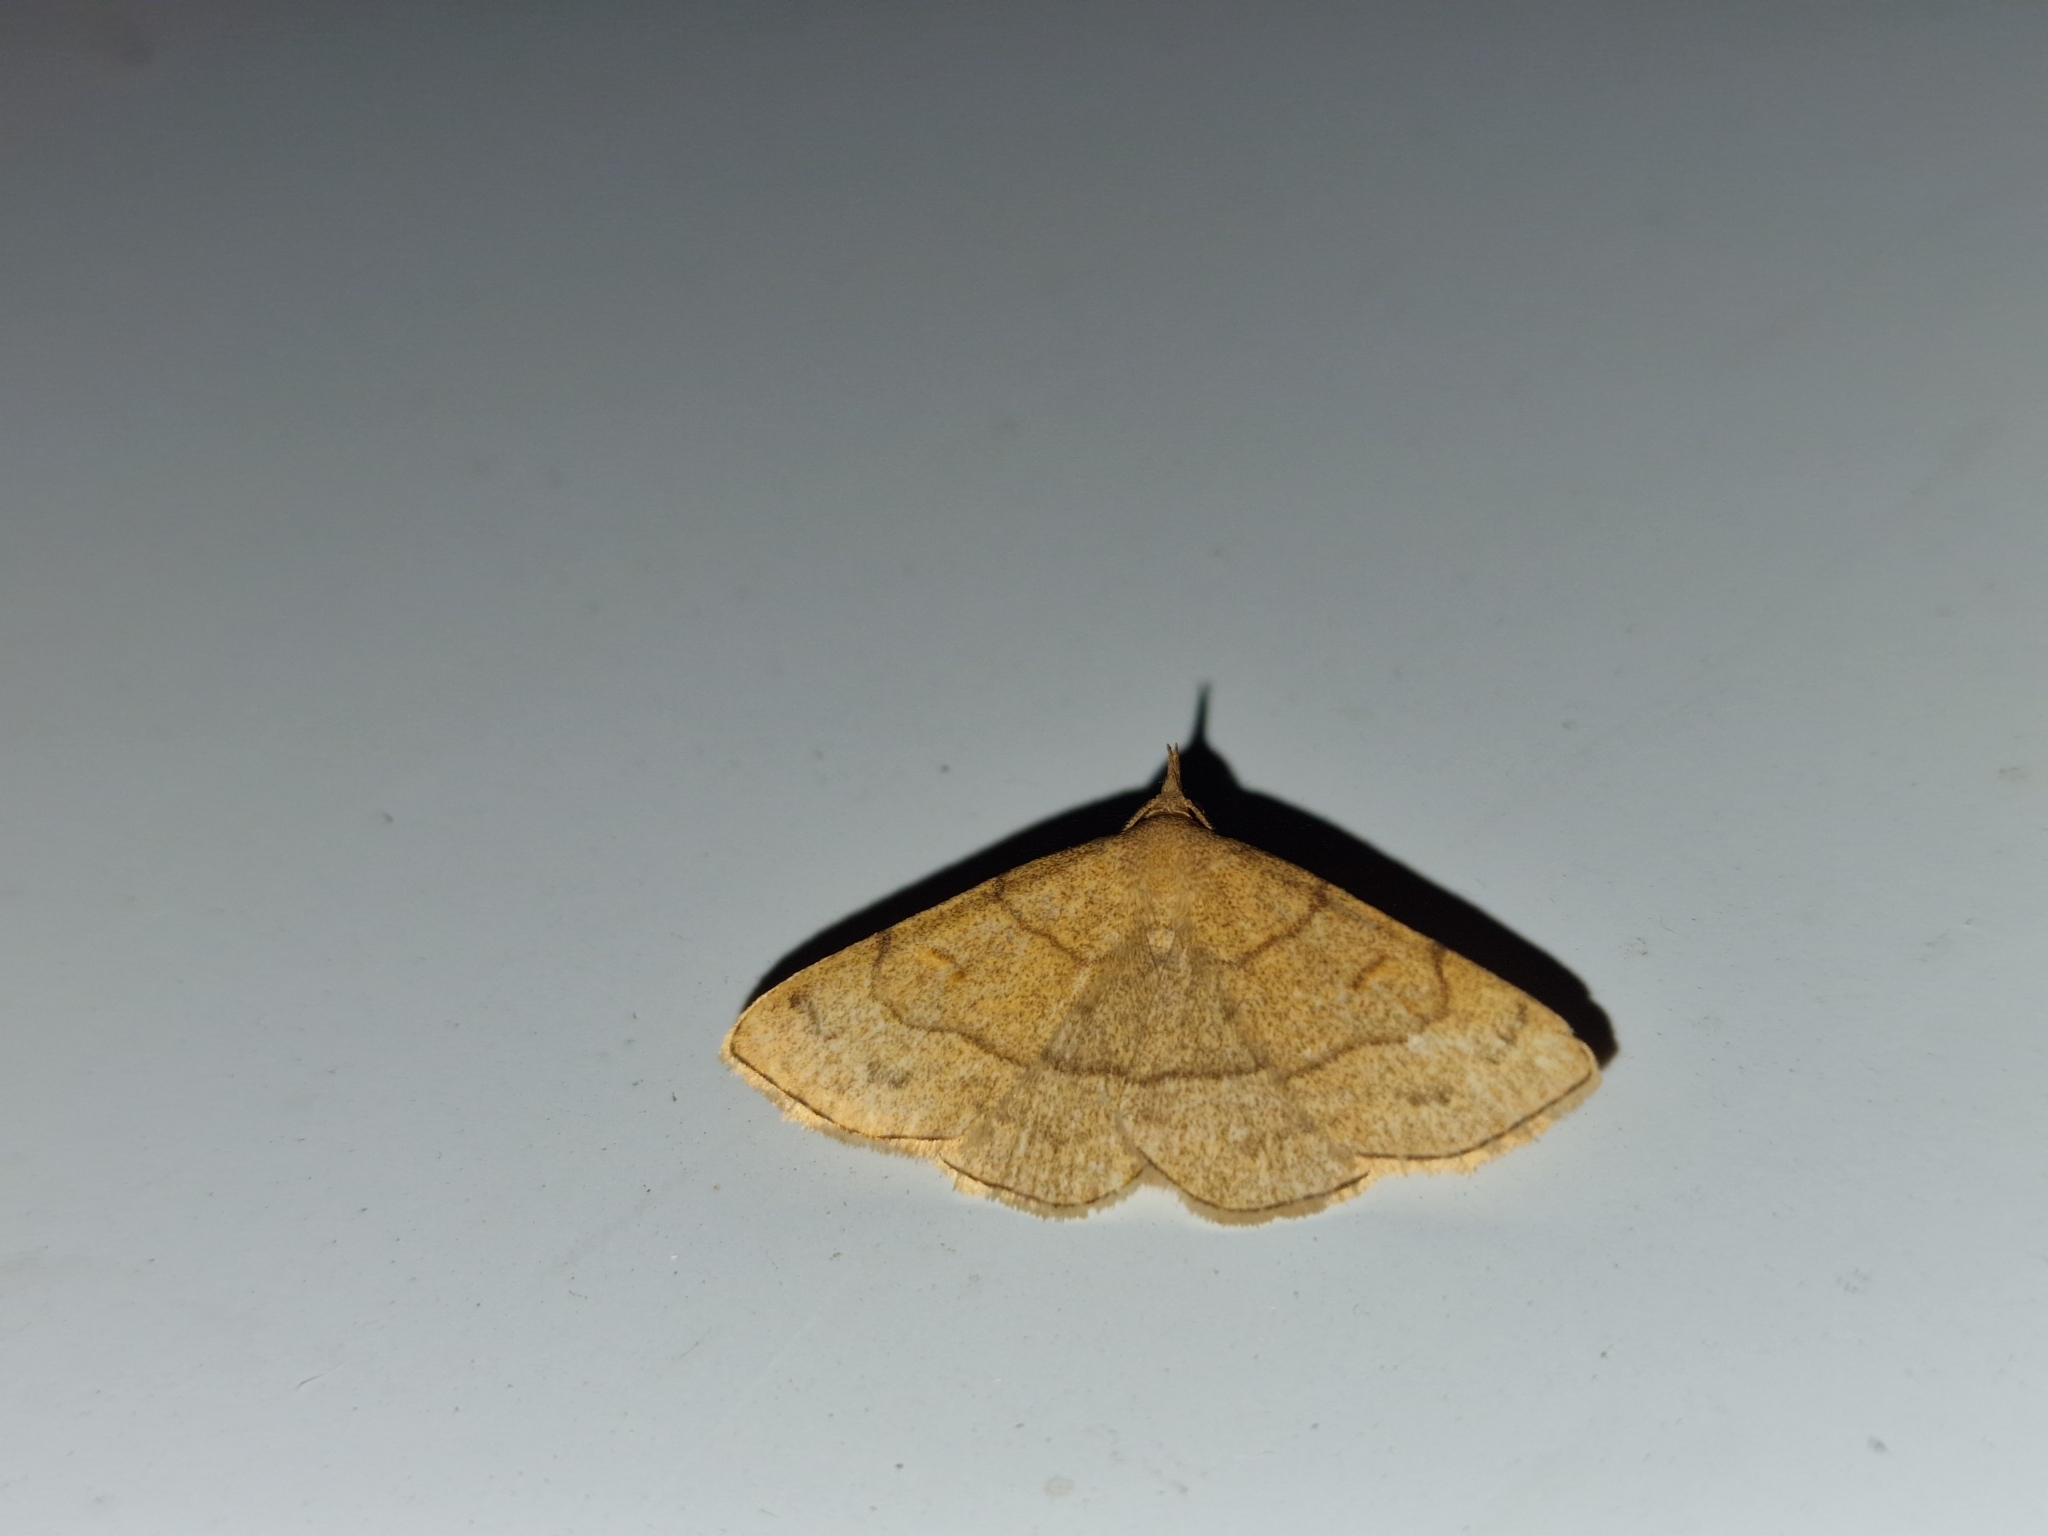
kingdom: Animalia
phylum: Arthropoda
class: Insecta
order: Lepidoptera
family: Erebidae
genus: Paracolax
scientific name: Paracolax tristalis
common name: Clay fan-foot
